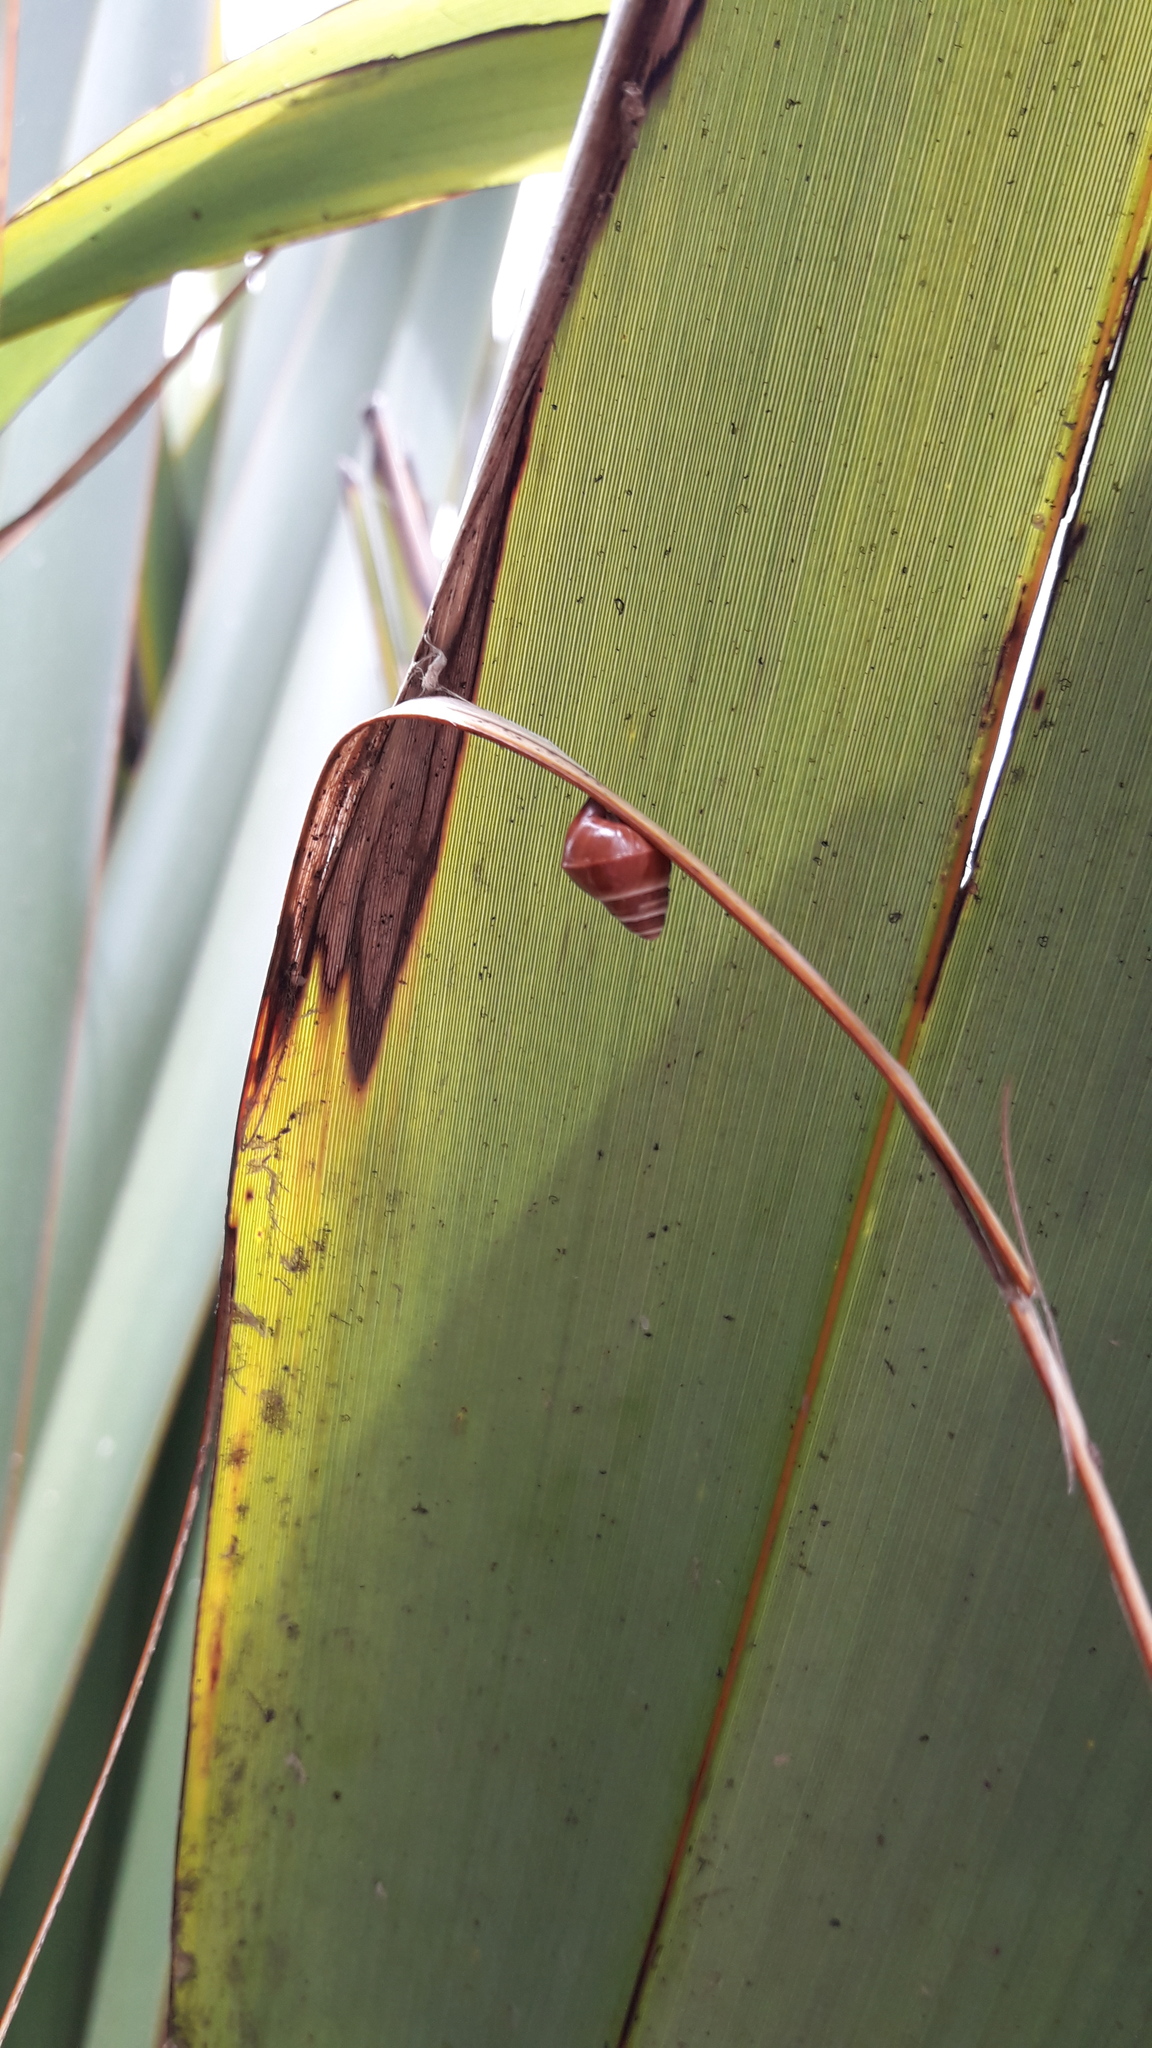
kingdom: Animalia
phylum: Mollusca
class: Gastropoda
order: Stylommatophora
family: Achatinellidae
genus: Partulina
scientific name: Partulina semicarinata
